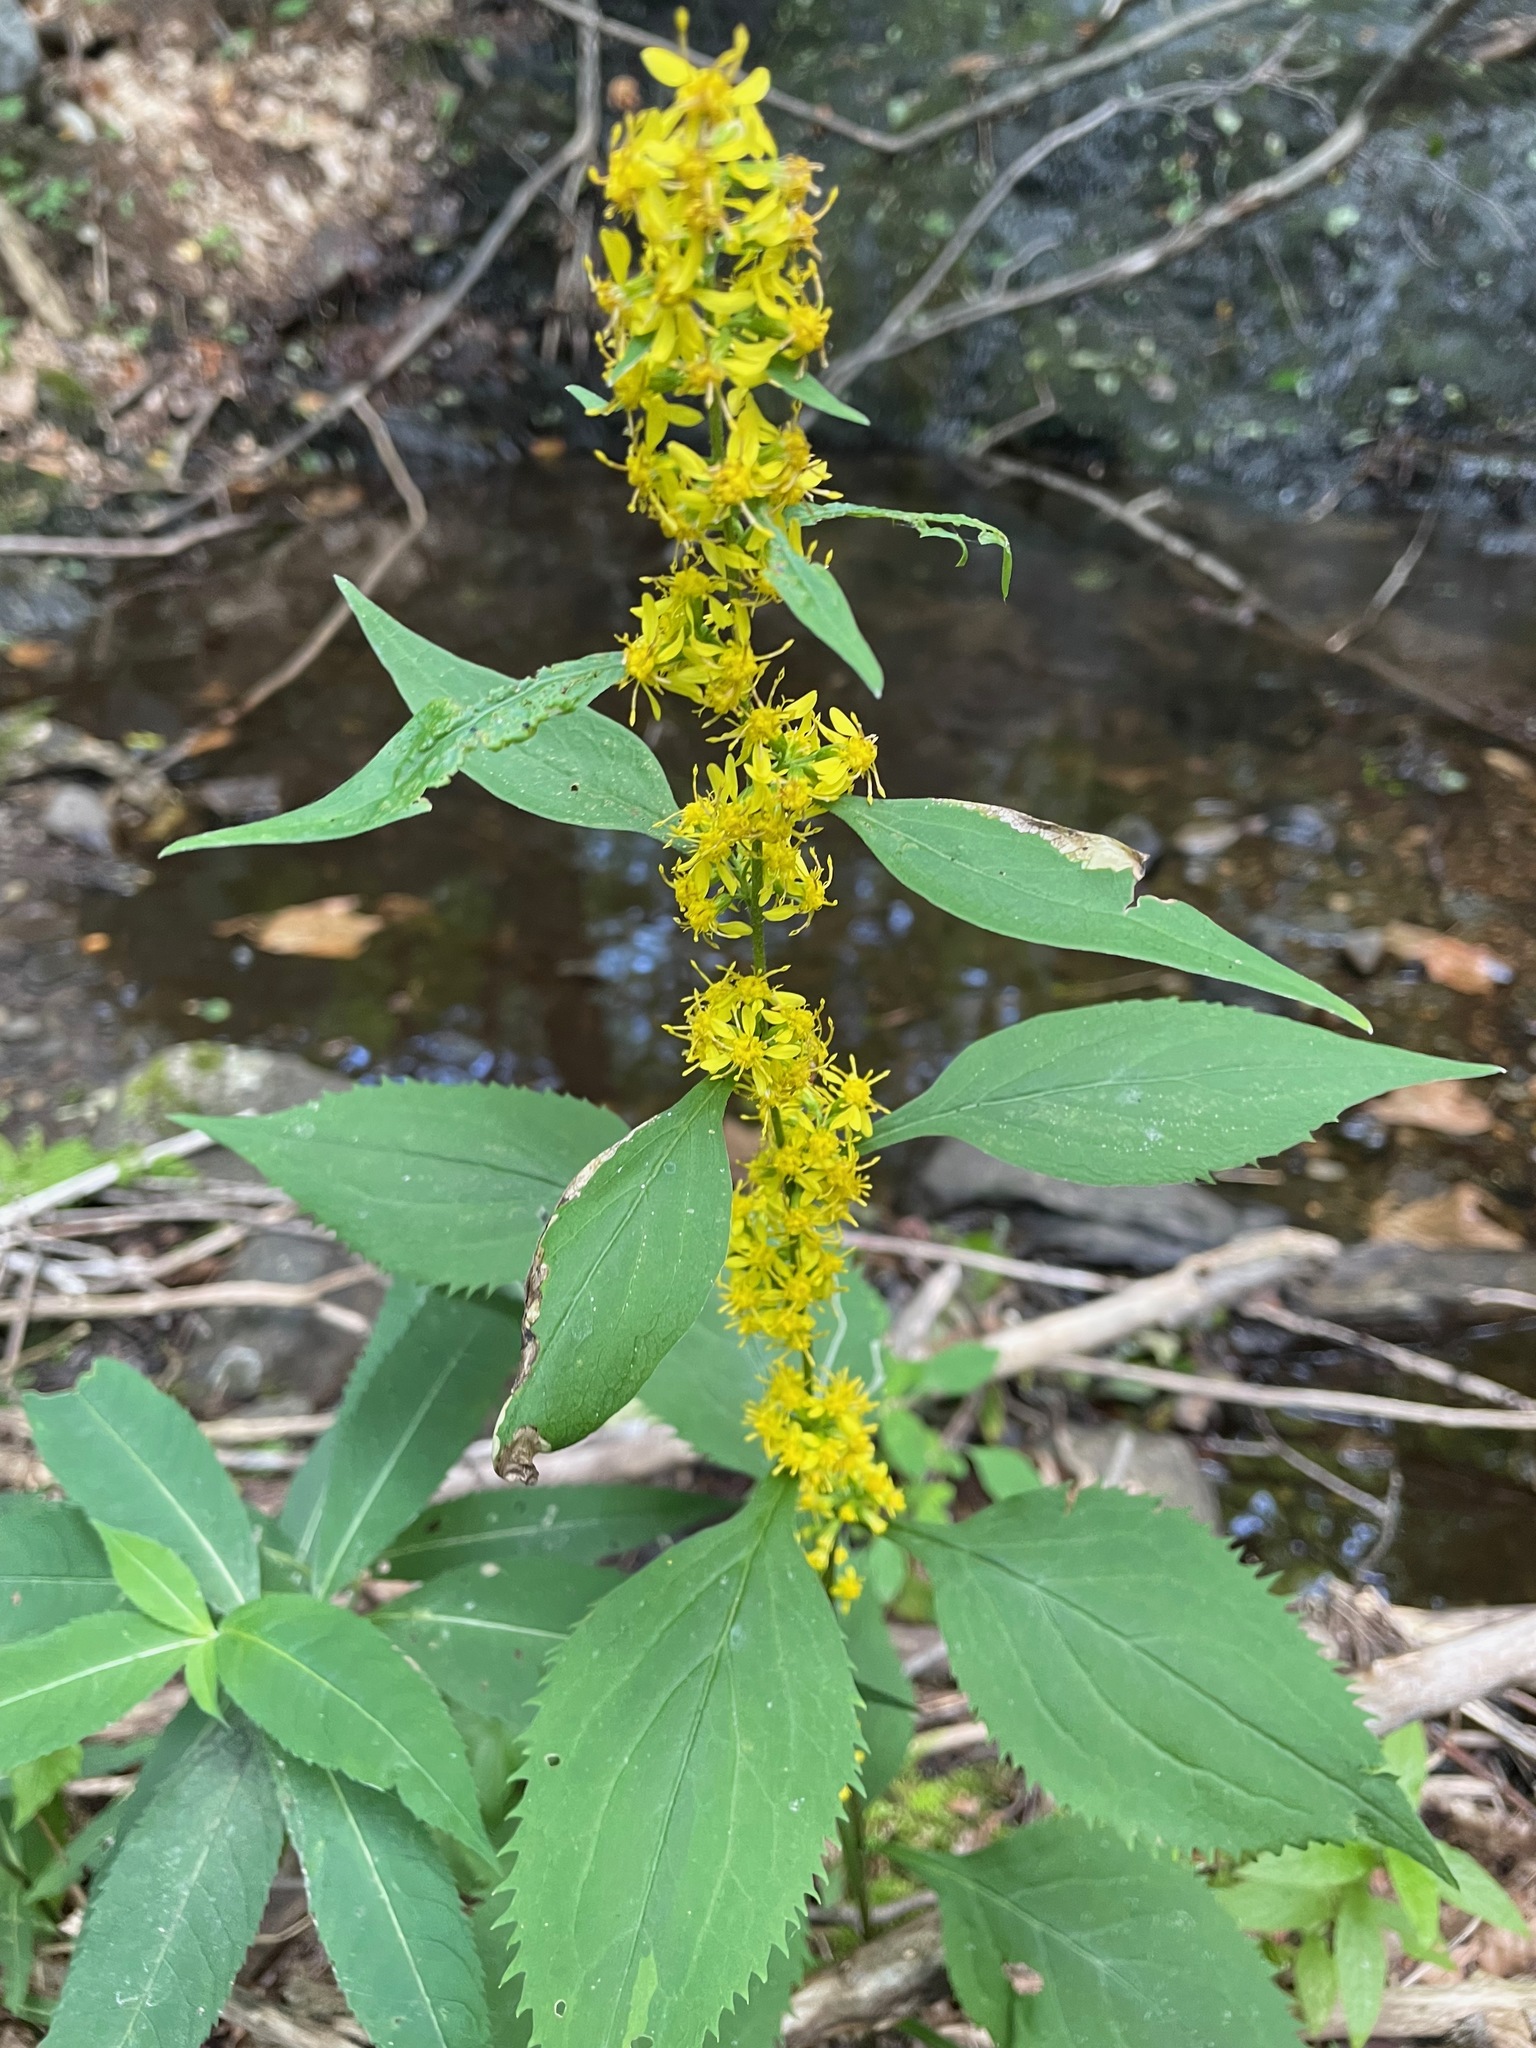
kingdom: Plantae
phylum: Tracheophyta
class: Magnoliopsida
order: Asterales
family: Asteraceae
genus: Solidago
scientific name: Solidago flexicaulis
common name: Zig-zag goldenrod
